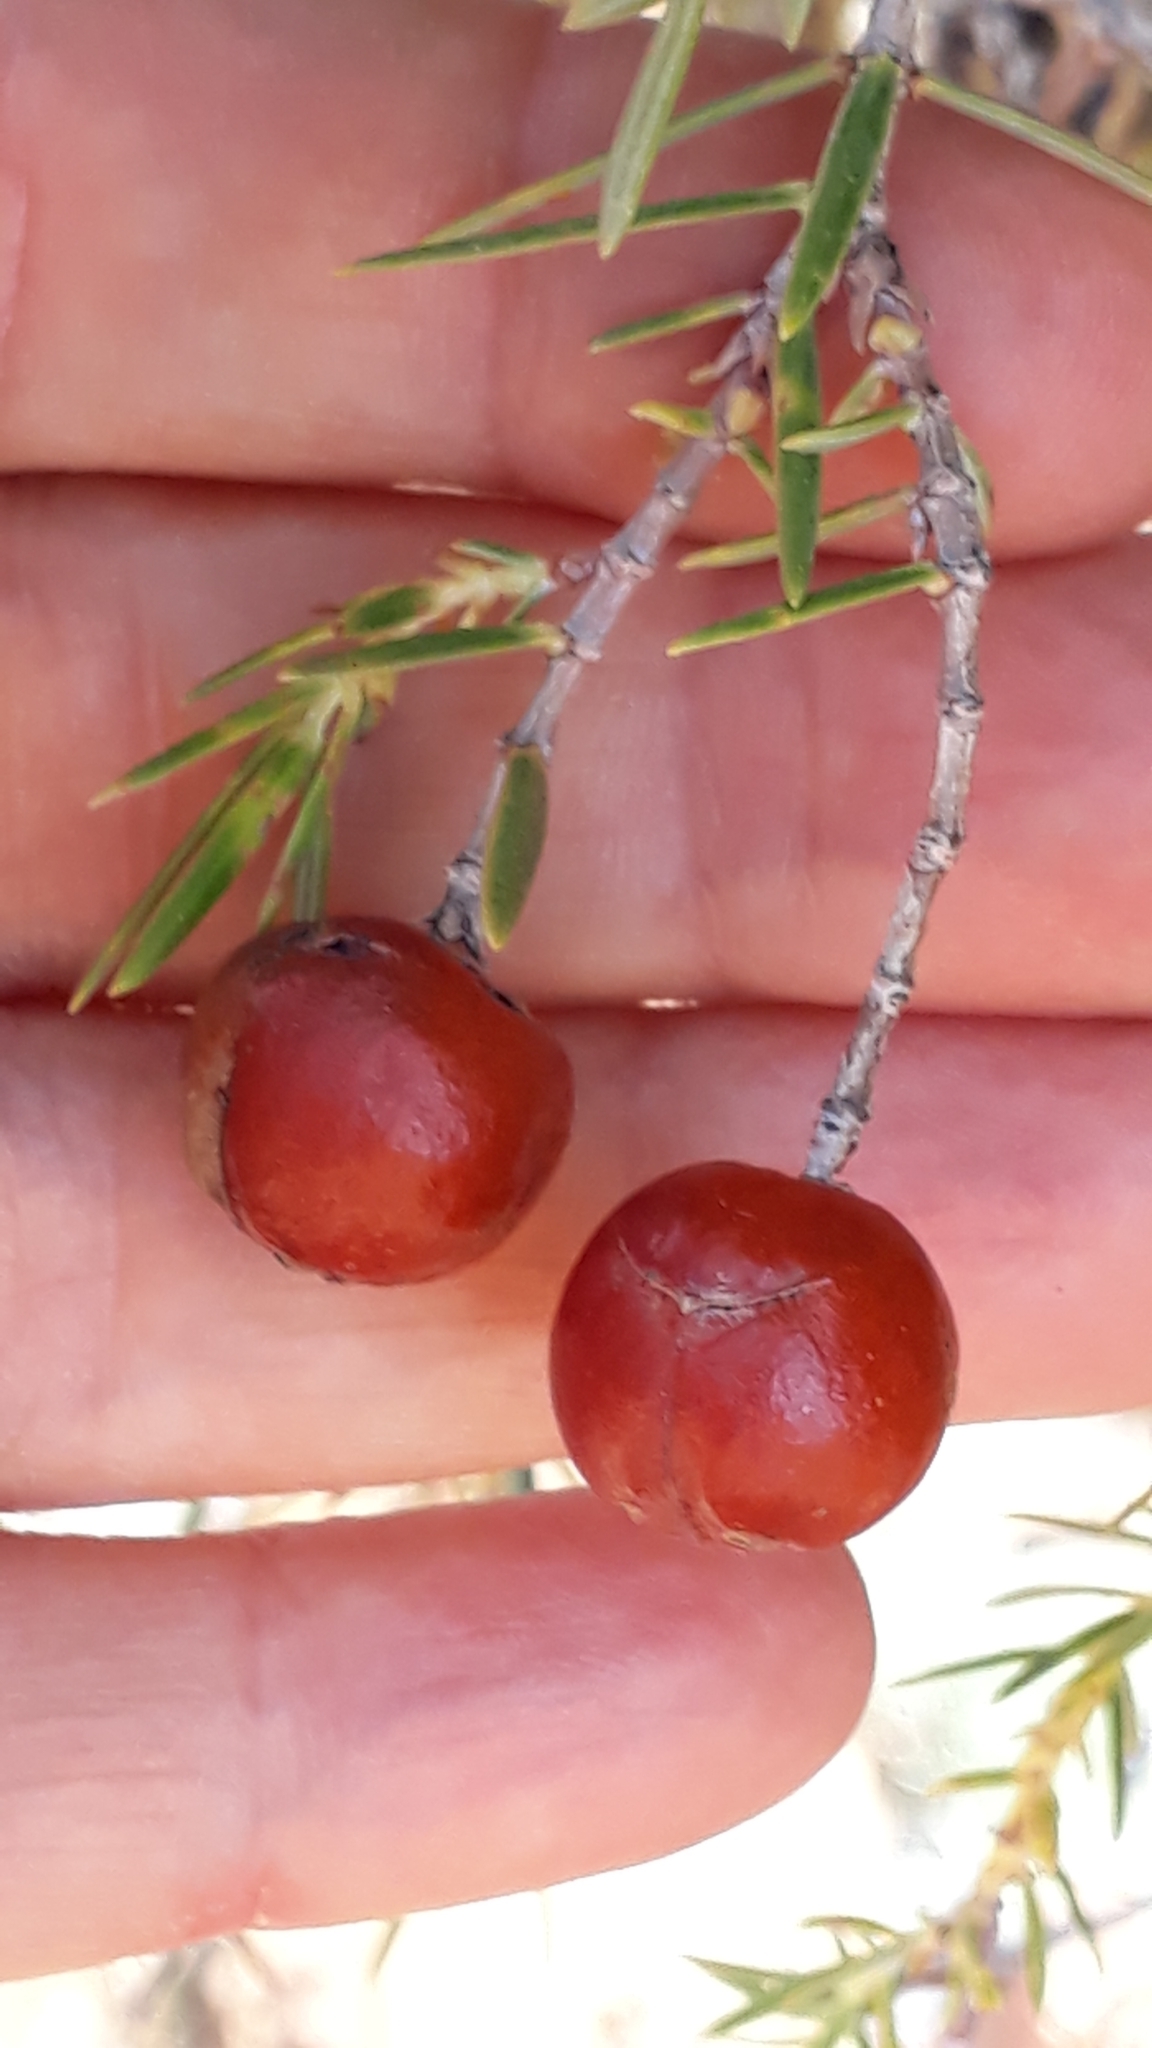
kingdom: Plantae
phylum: Tracheophyta
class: Pinopsida
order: Pinales
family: Cupressaceae
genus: Juniperus
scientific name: Juniperus cedrus
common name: Canary islands juniper
